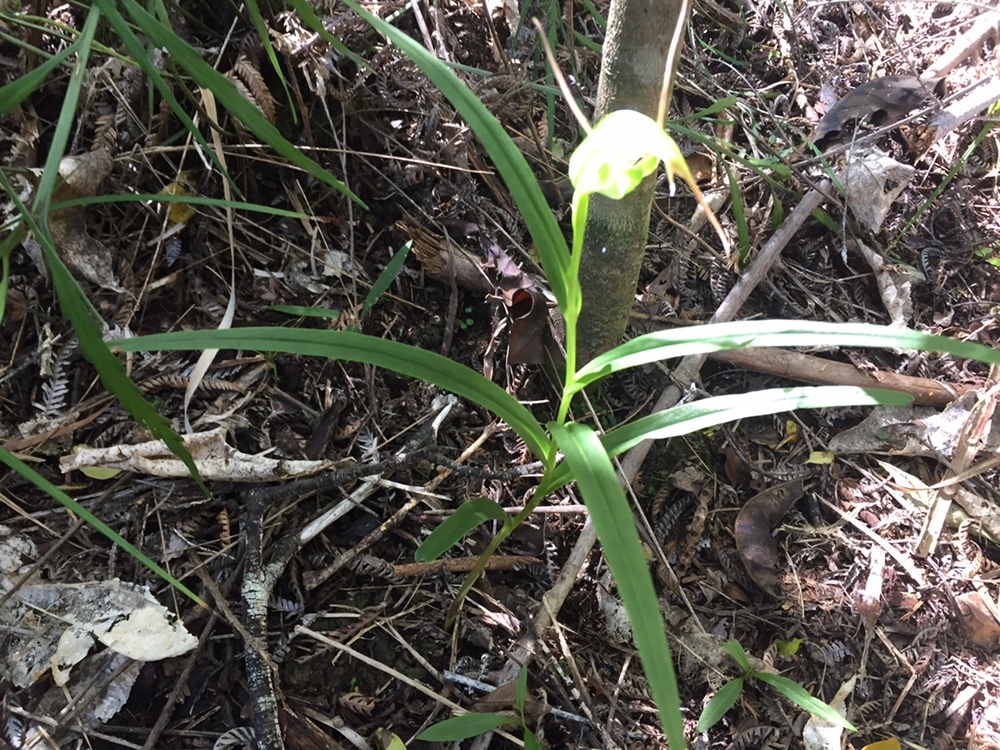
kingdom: Plantae
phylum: Tracheophyta
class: Liliopsida
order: Asparagales
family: Orchidaceae
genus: Pterostylis
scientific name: Pterostylis banksii
